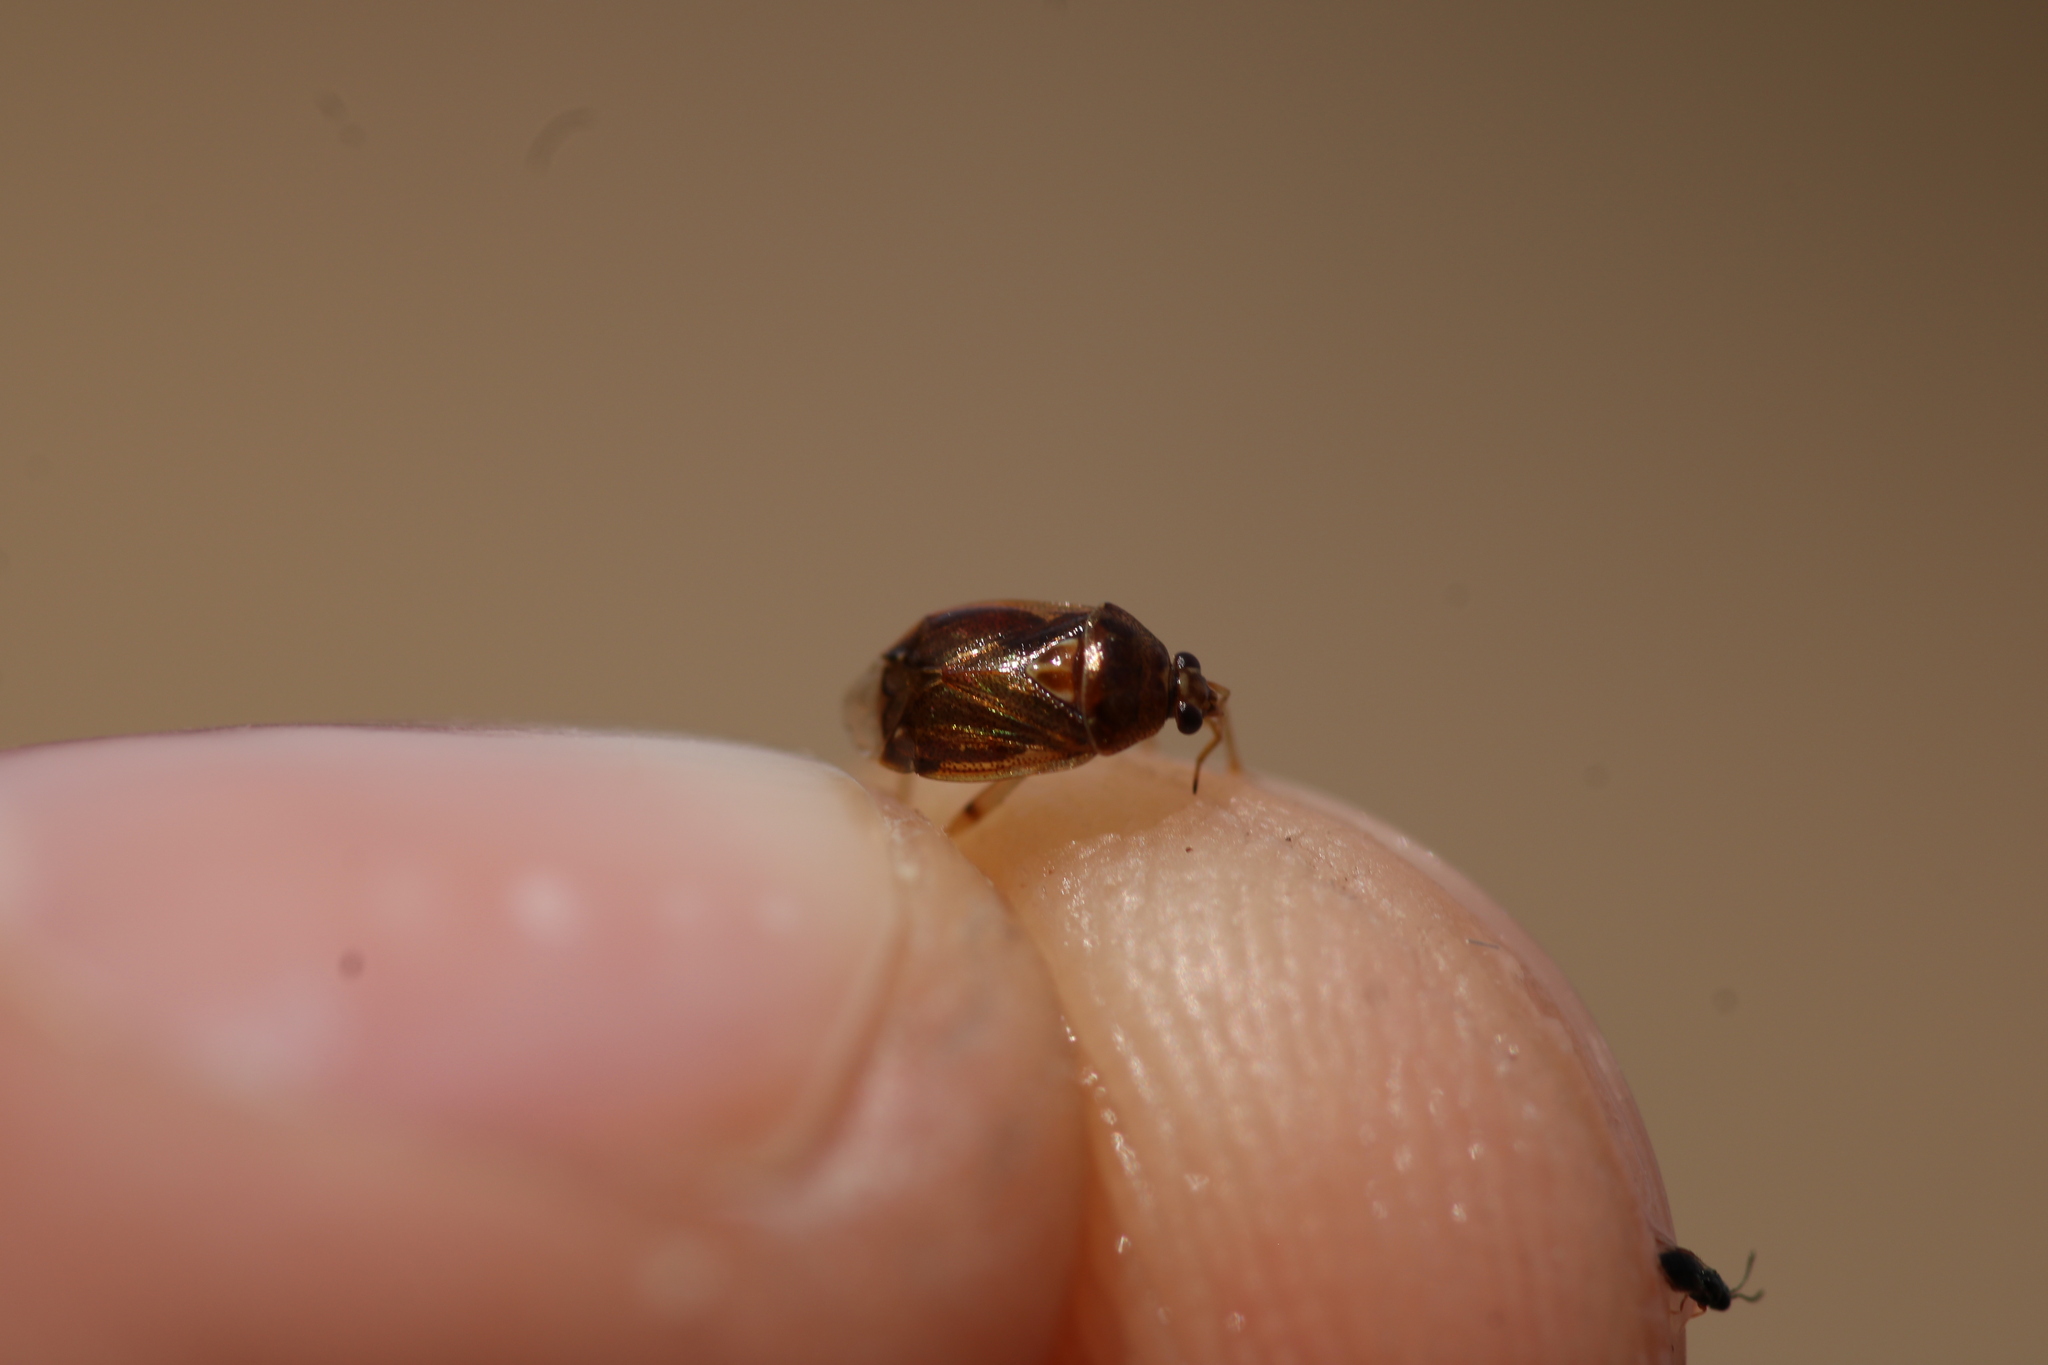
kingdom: Animalia
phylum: Arthropoda
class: Insecta
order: Hemiptera
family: Miridae
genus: Deraeocoris
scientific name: Deraeocoris lutescens
